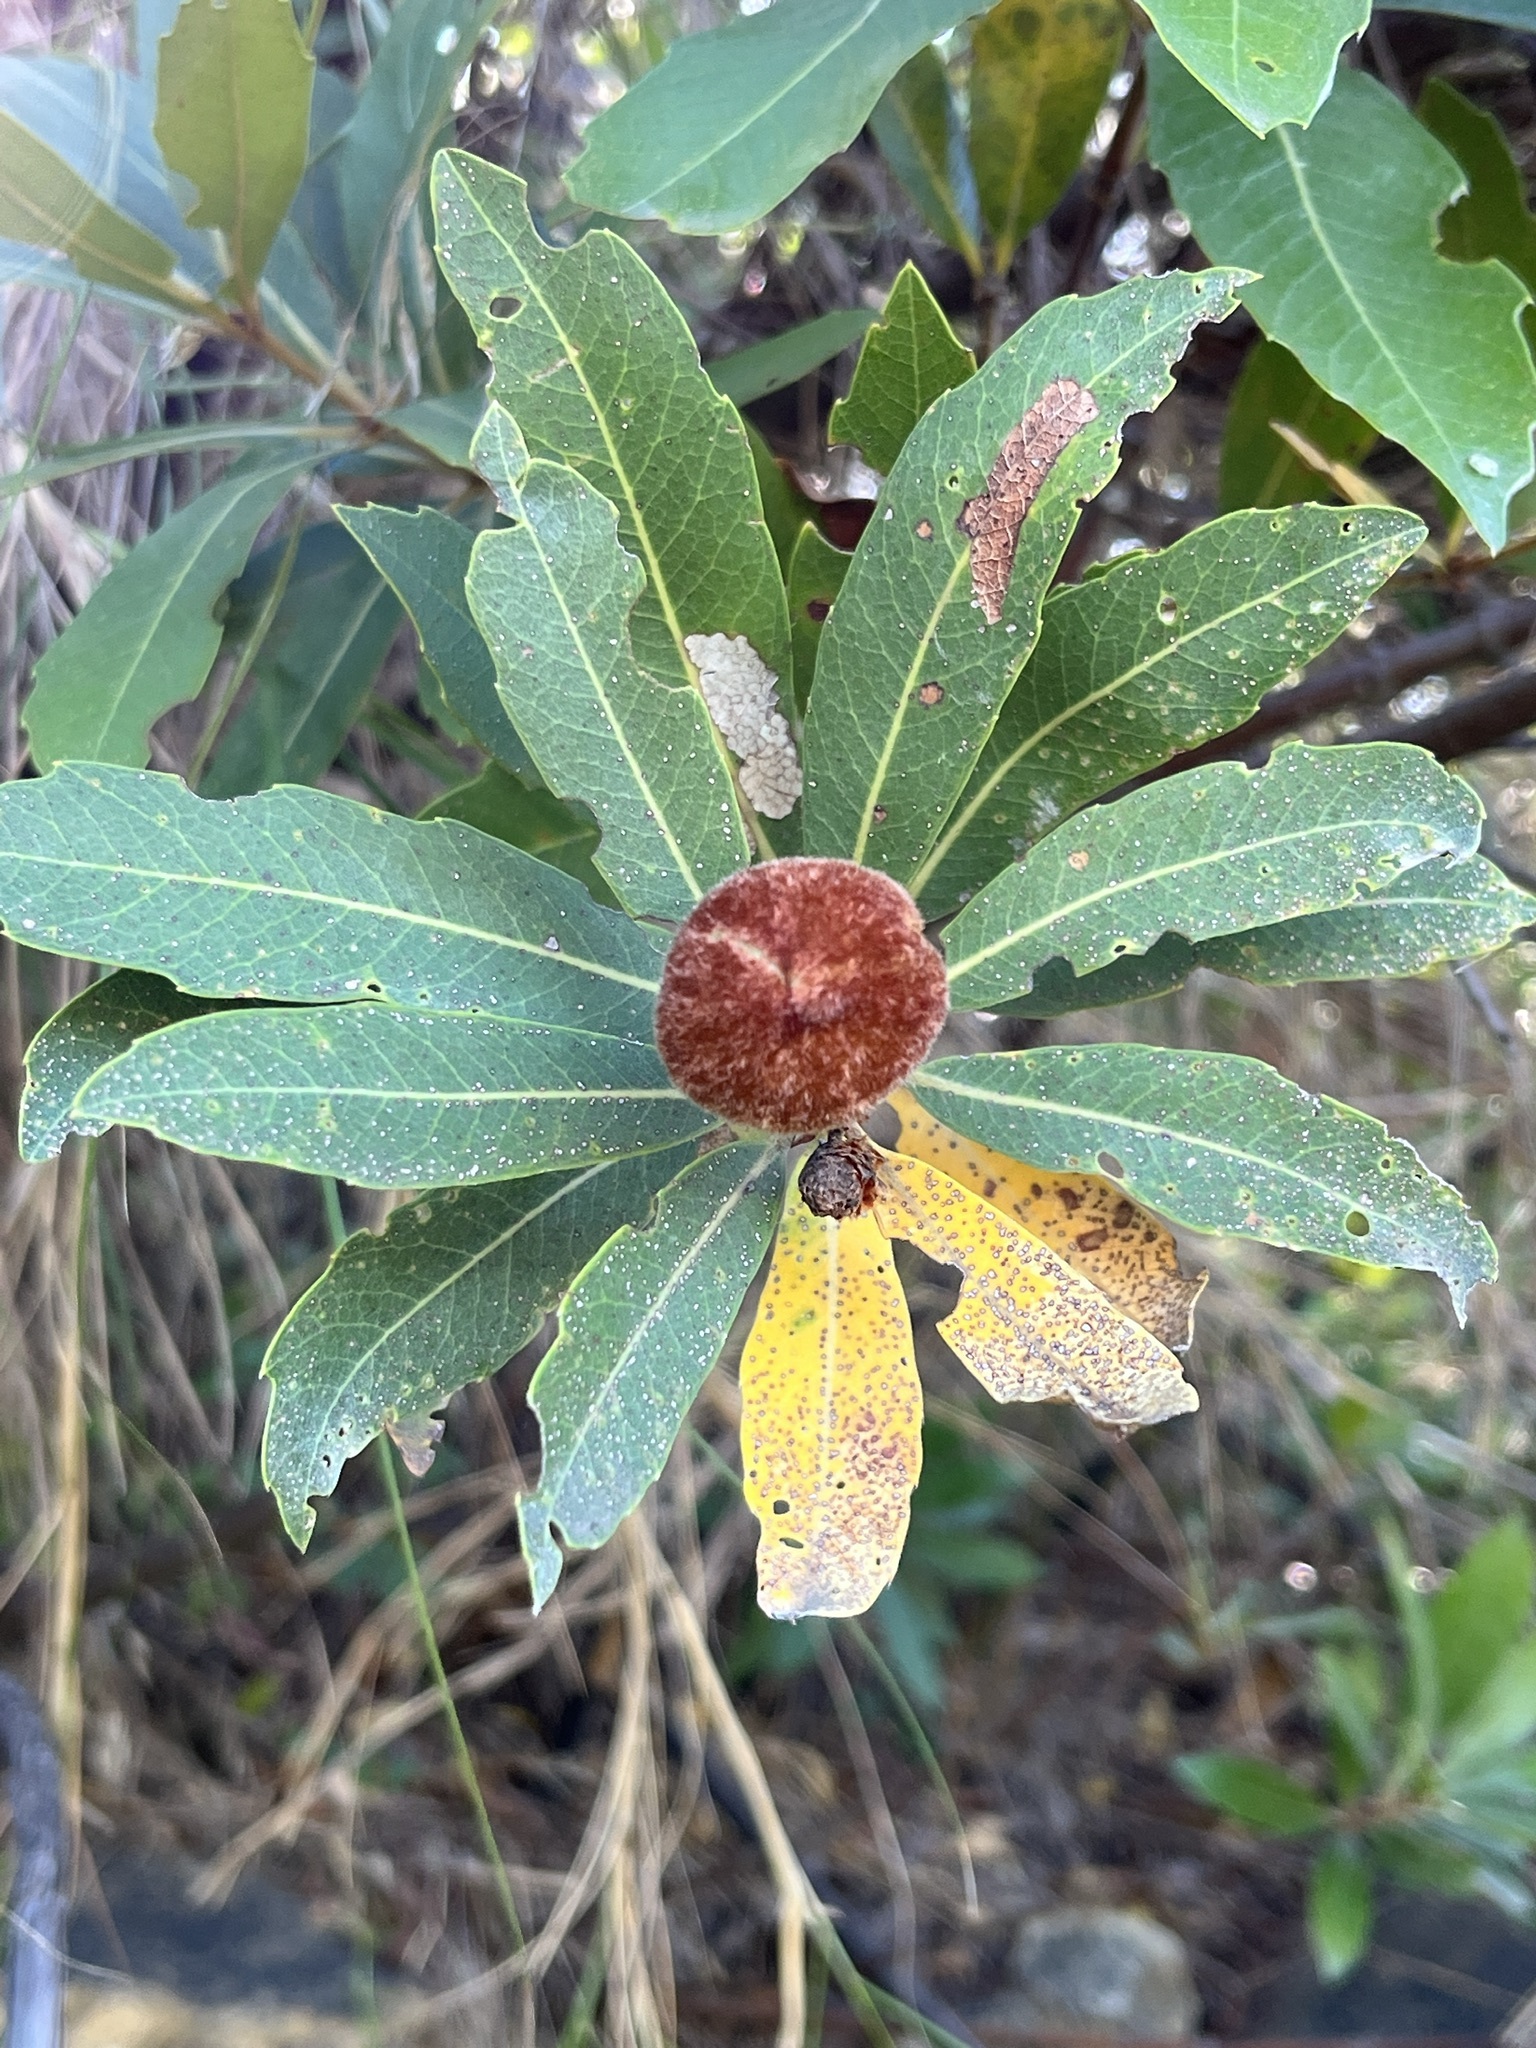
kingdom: Plantae
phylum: Tracheophyta
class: Magnoliopsida
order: Proteales
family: Proteaceae
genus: Brabejum
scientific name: Brabejum stellatifolium
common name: Wild almond
